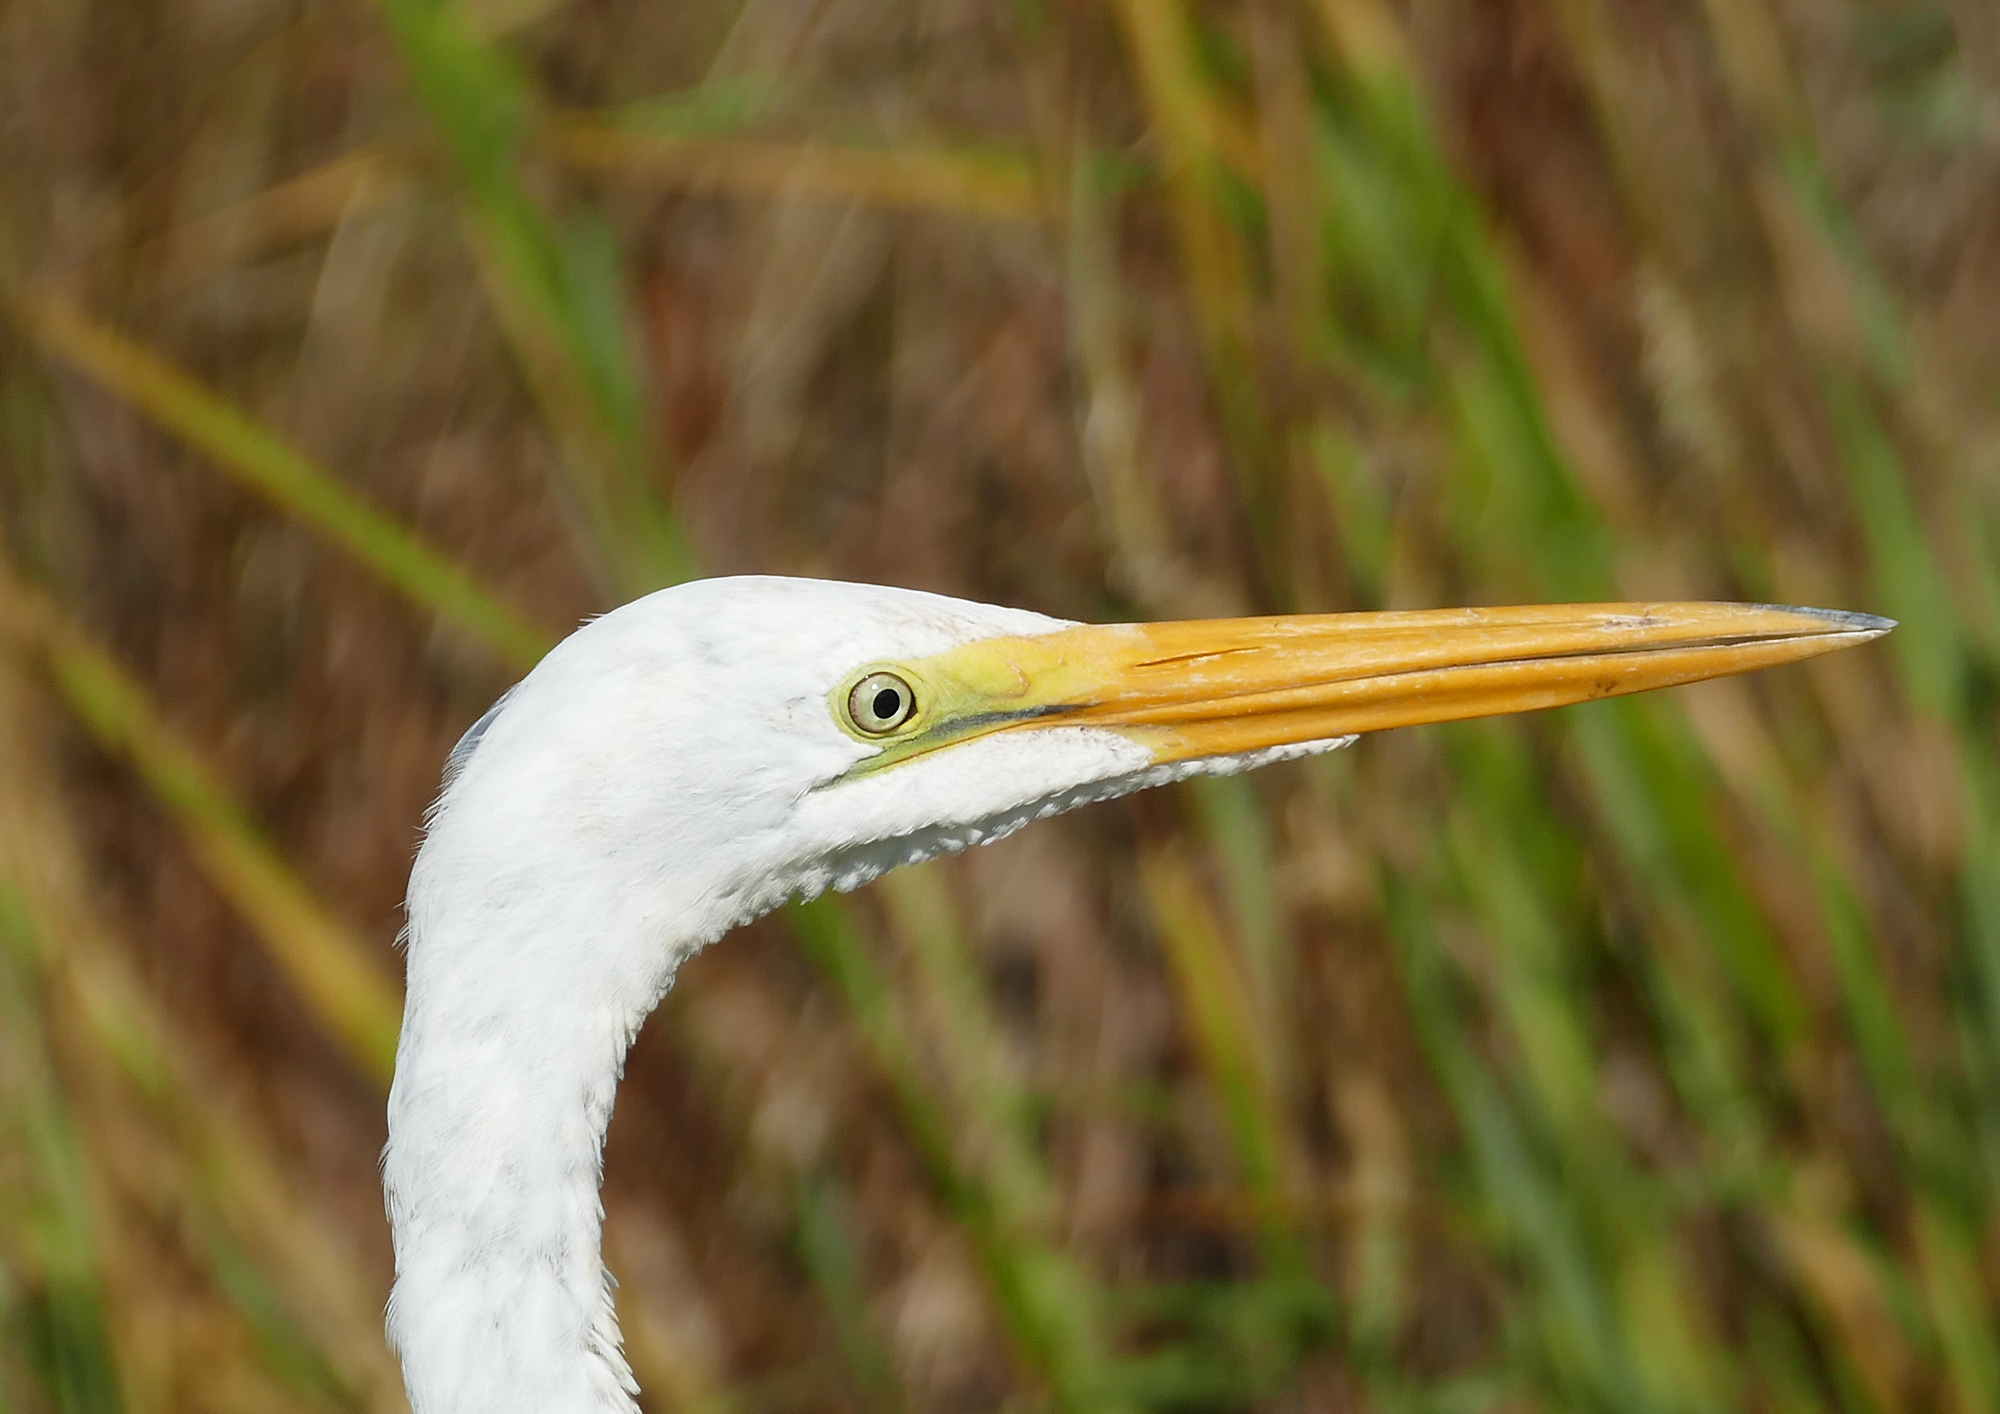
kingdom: Animalia
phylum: Chordata
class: Aves
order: Pelecaniformes
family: Ardeidae
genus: Ardea
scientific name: Ardea alba
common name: Great egret
